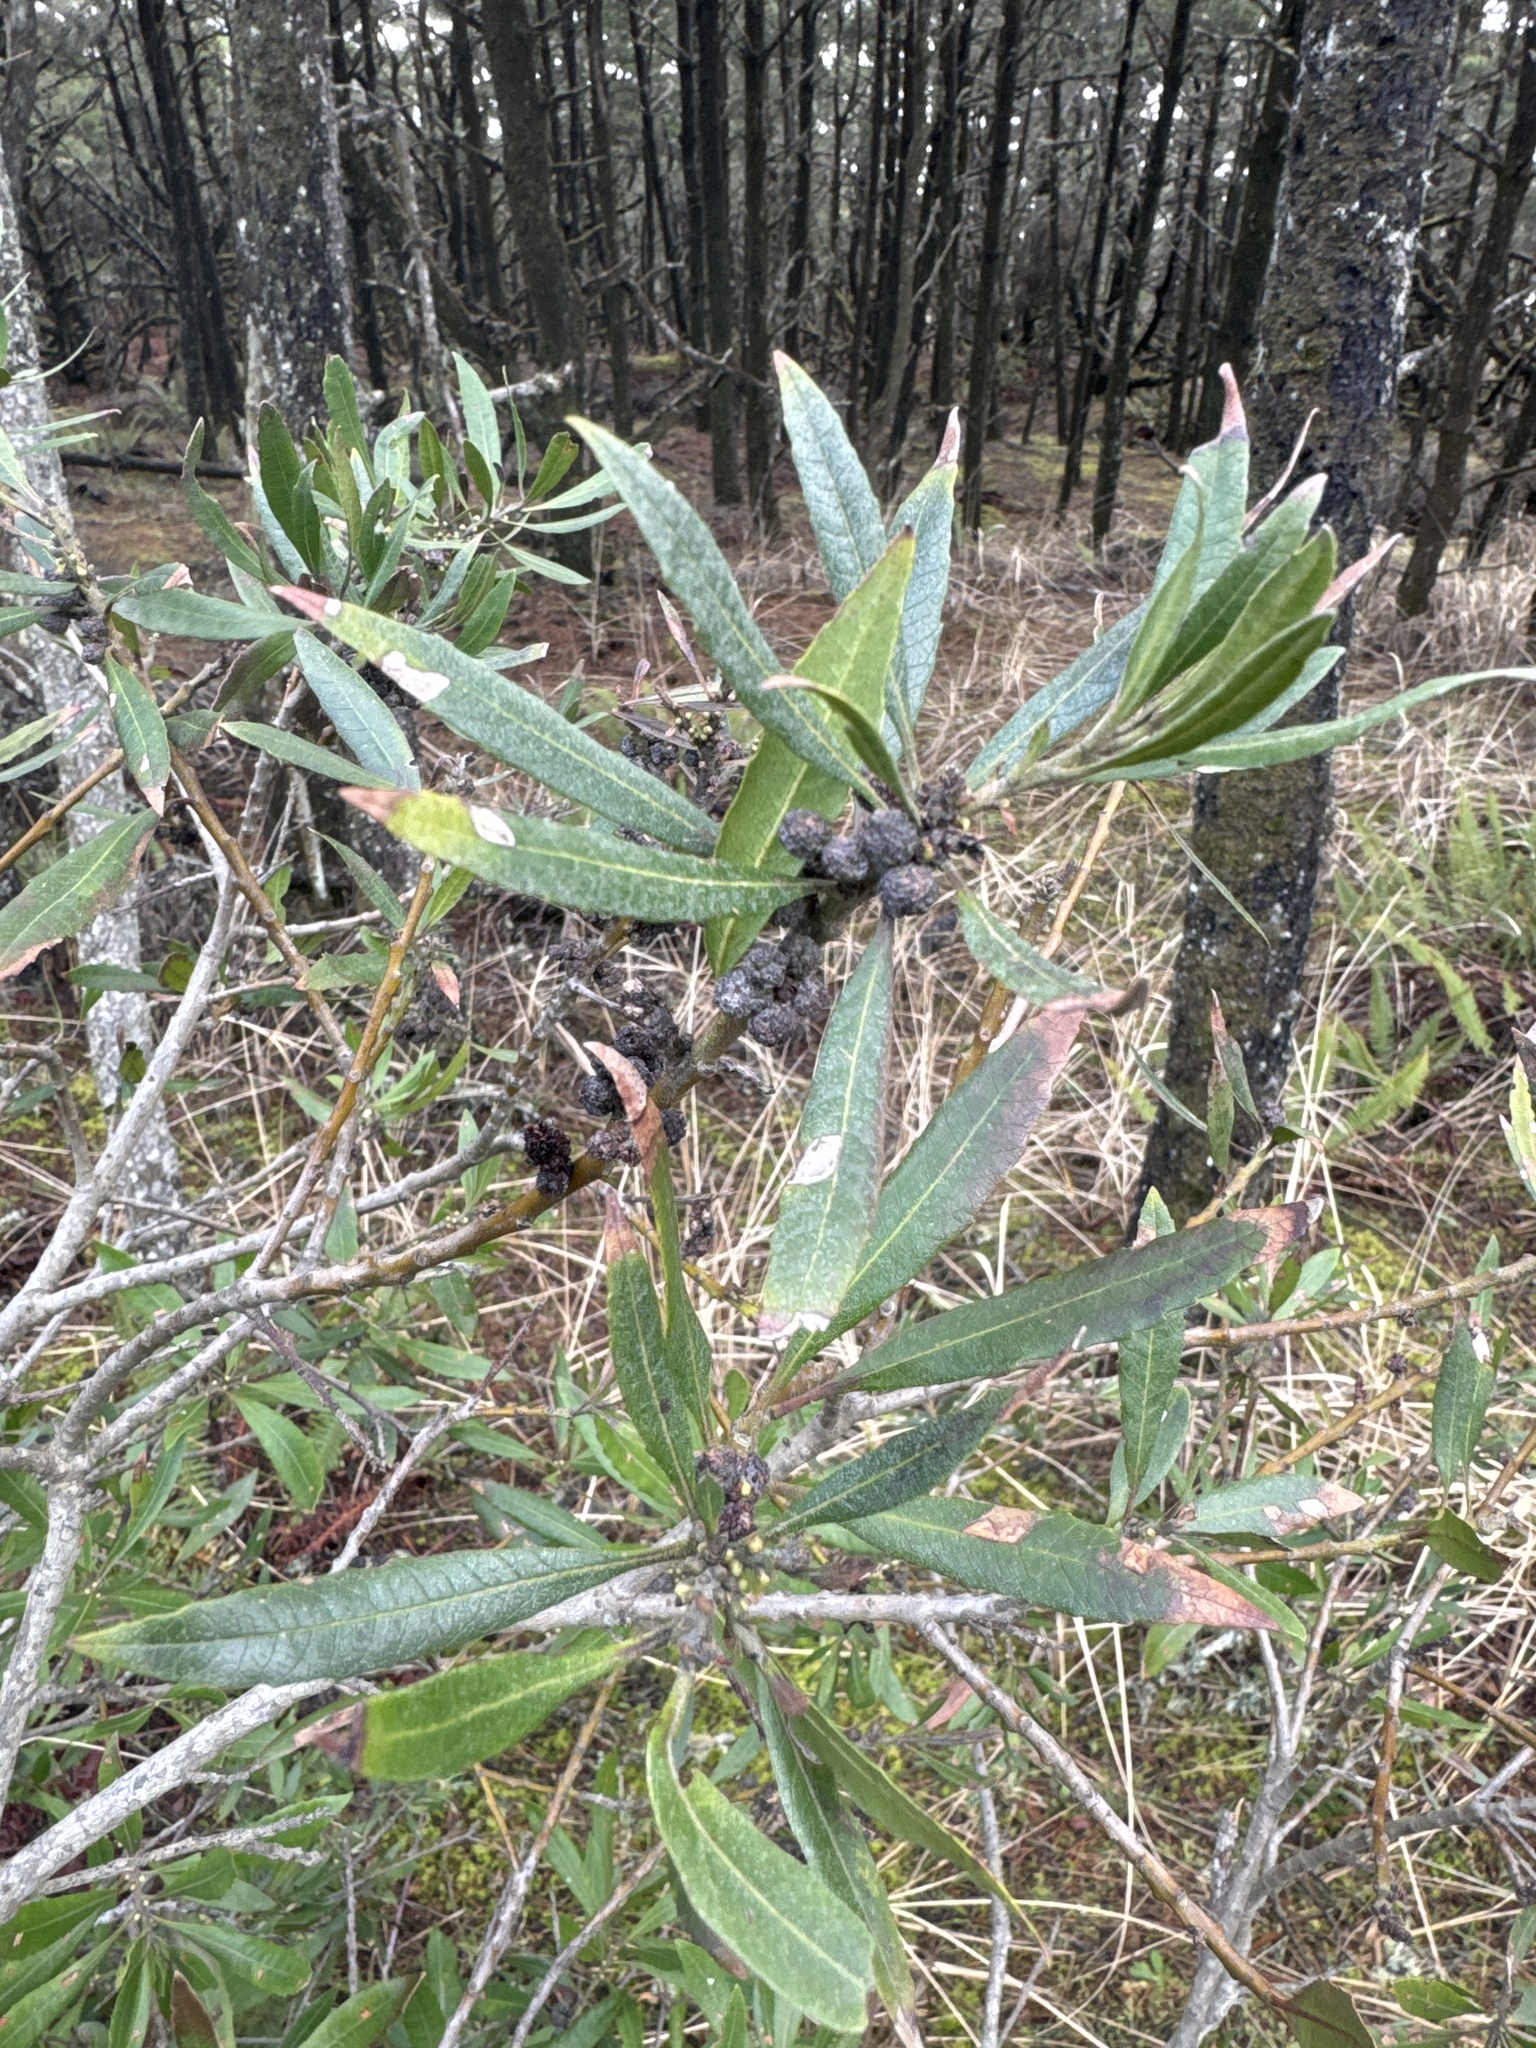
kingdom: Plantae
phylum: Tracheophyta
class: Magnoliopsida
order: Fagales
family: Myricaceae
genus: Morella
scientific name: Morella californica
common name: California wax-myrtle
